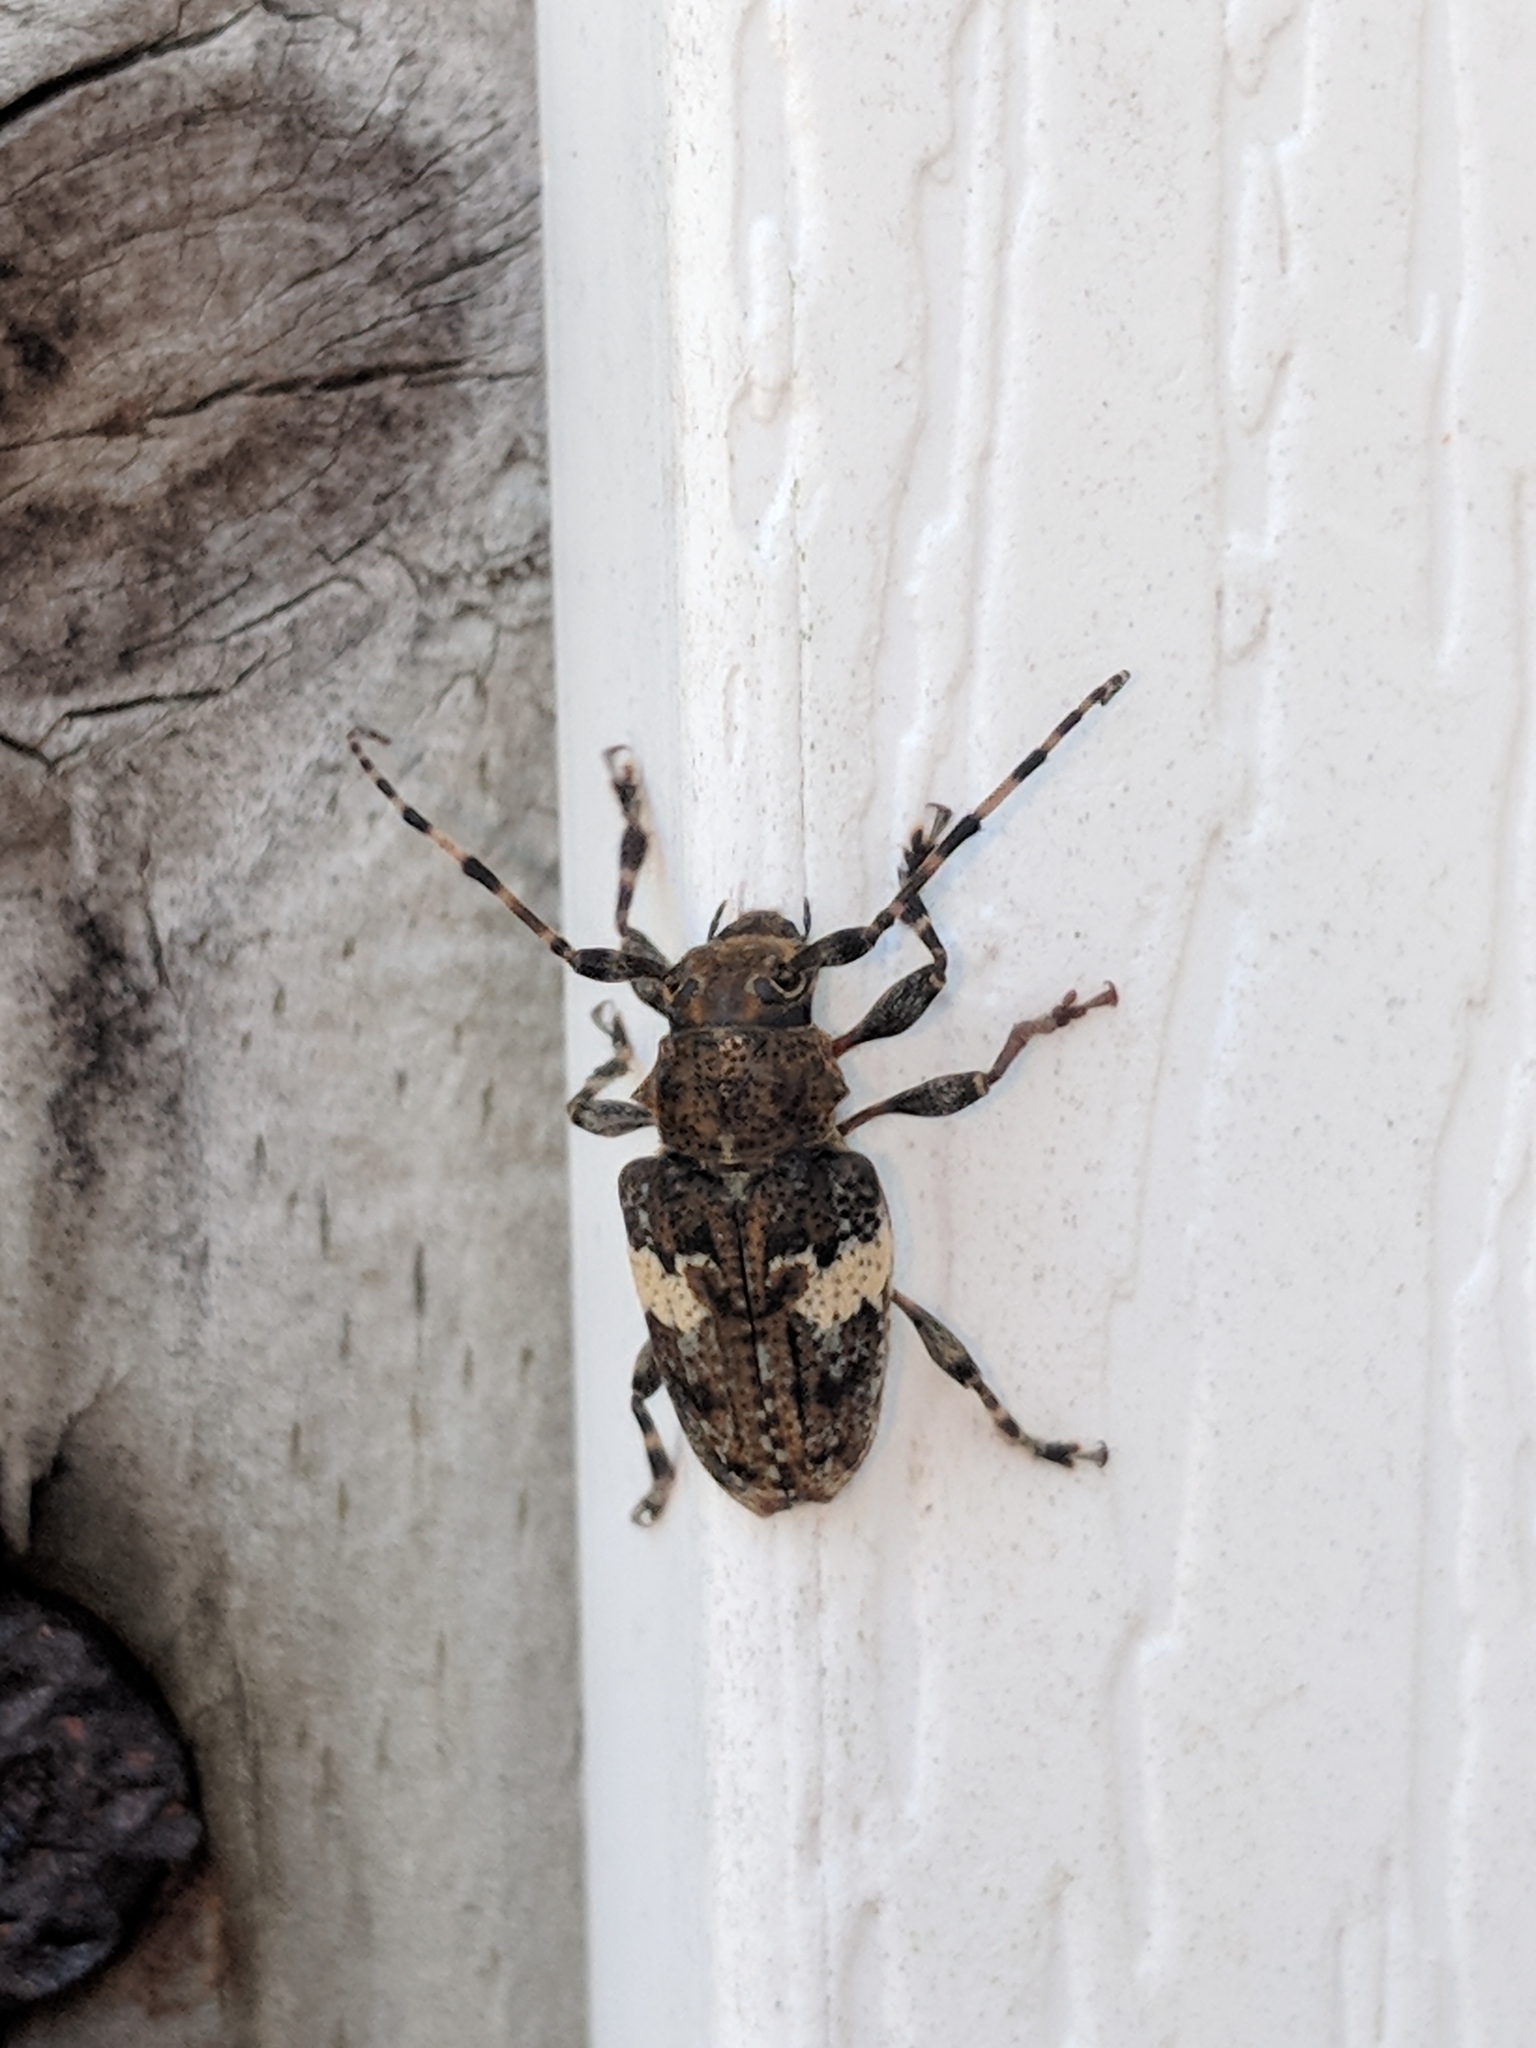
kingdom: Animalia
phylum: Arthropoda
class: Insecta
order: Coleoptera
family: Cerambycidae
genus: Acanthoderes
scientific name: Acanthoderes quadrigibba
